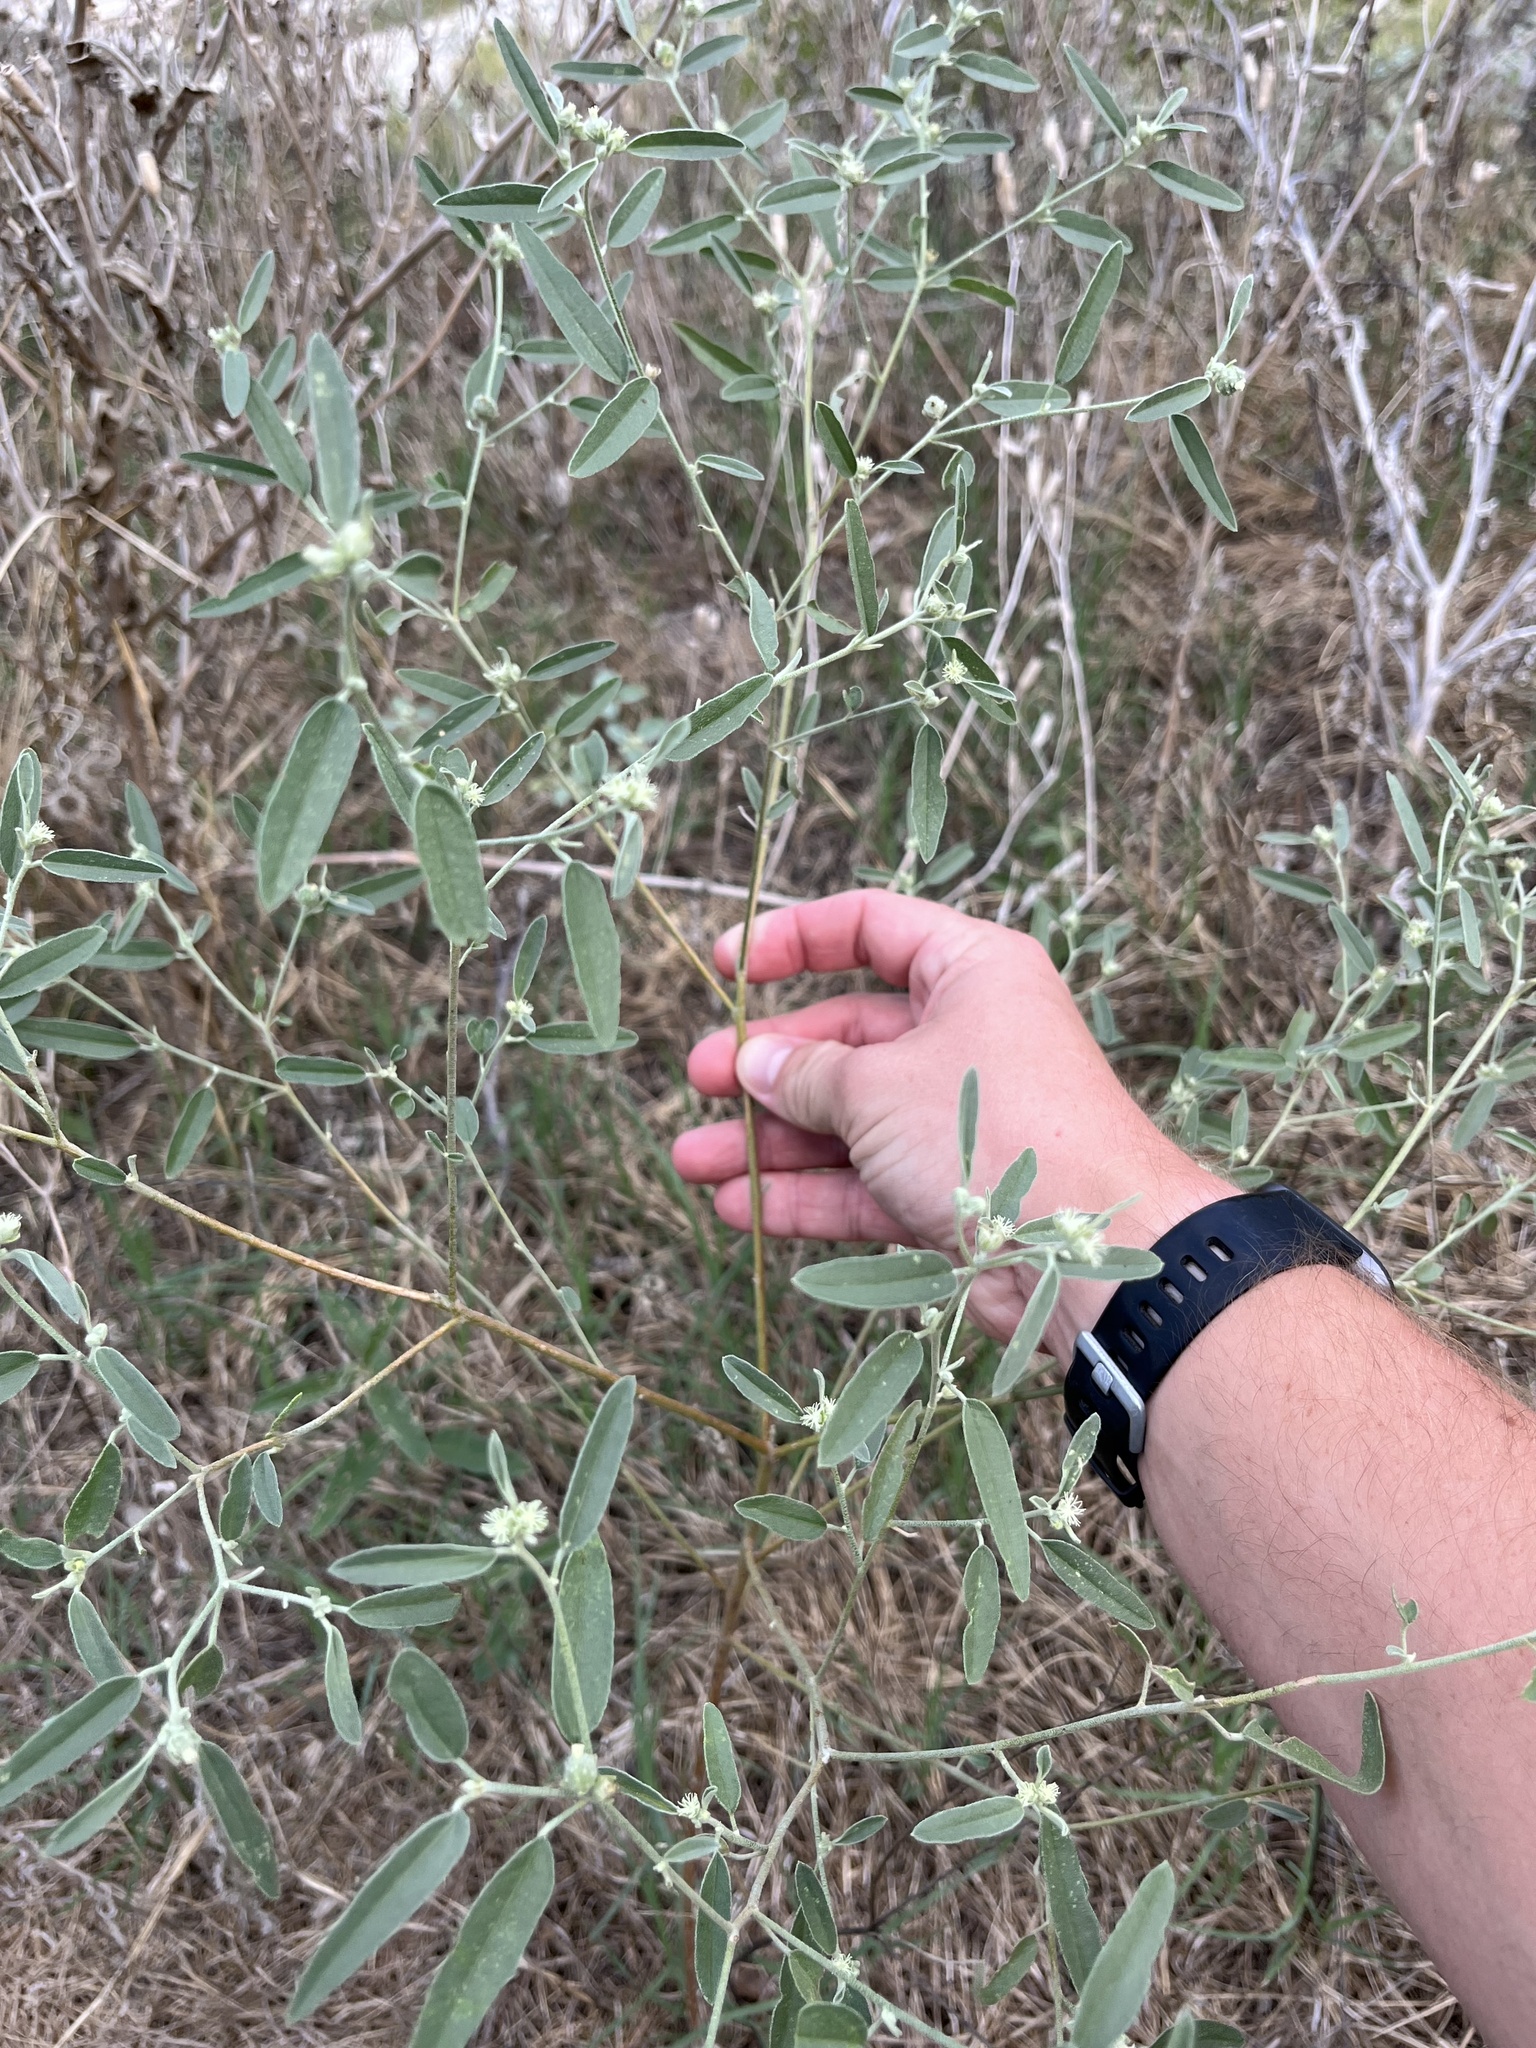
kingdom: Plantae
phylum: Tracheophyta
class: Magnoliopsida
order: Malpighiales
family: Euphorbiaceae
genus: Croton
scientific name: Croton texensis
